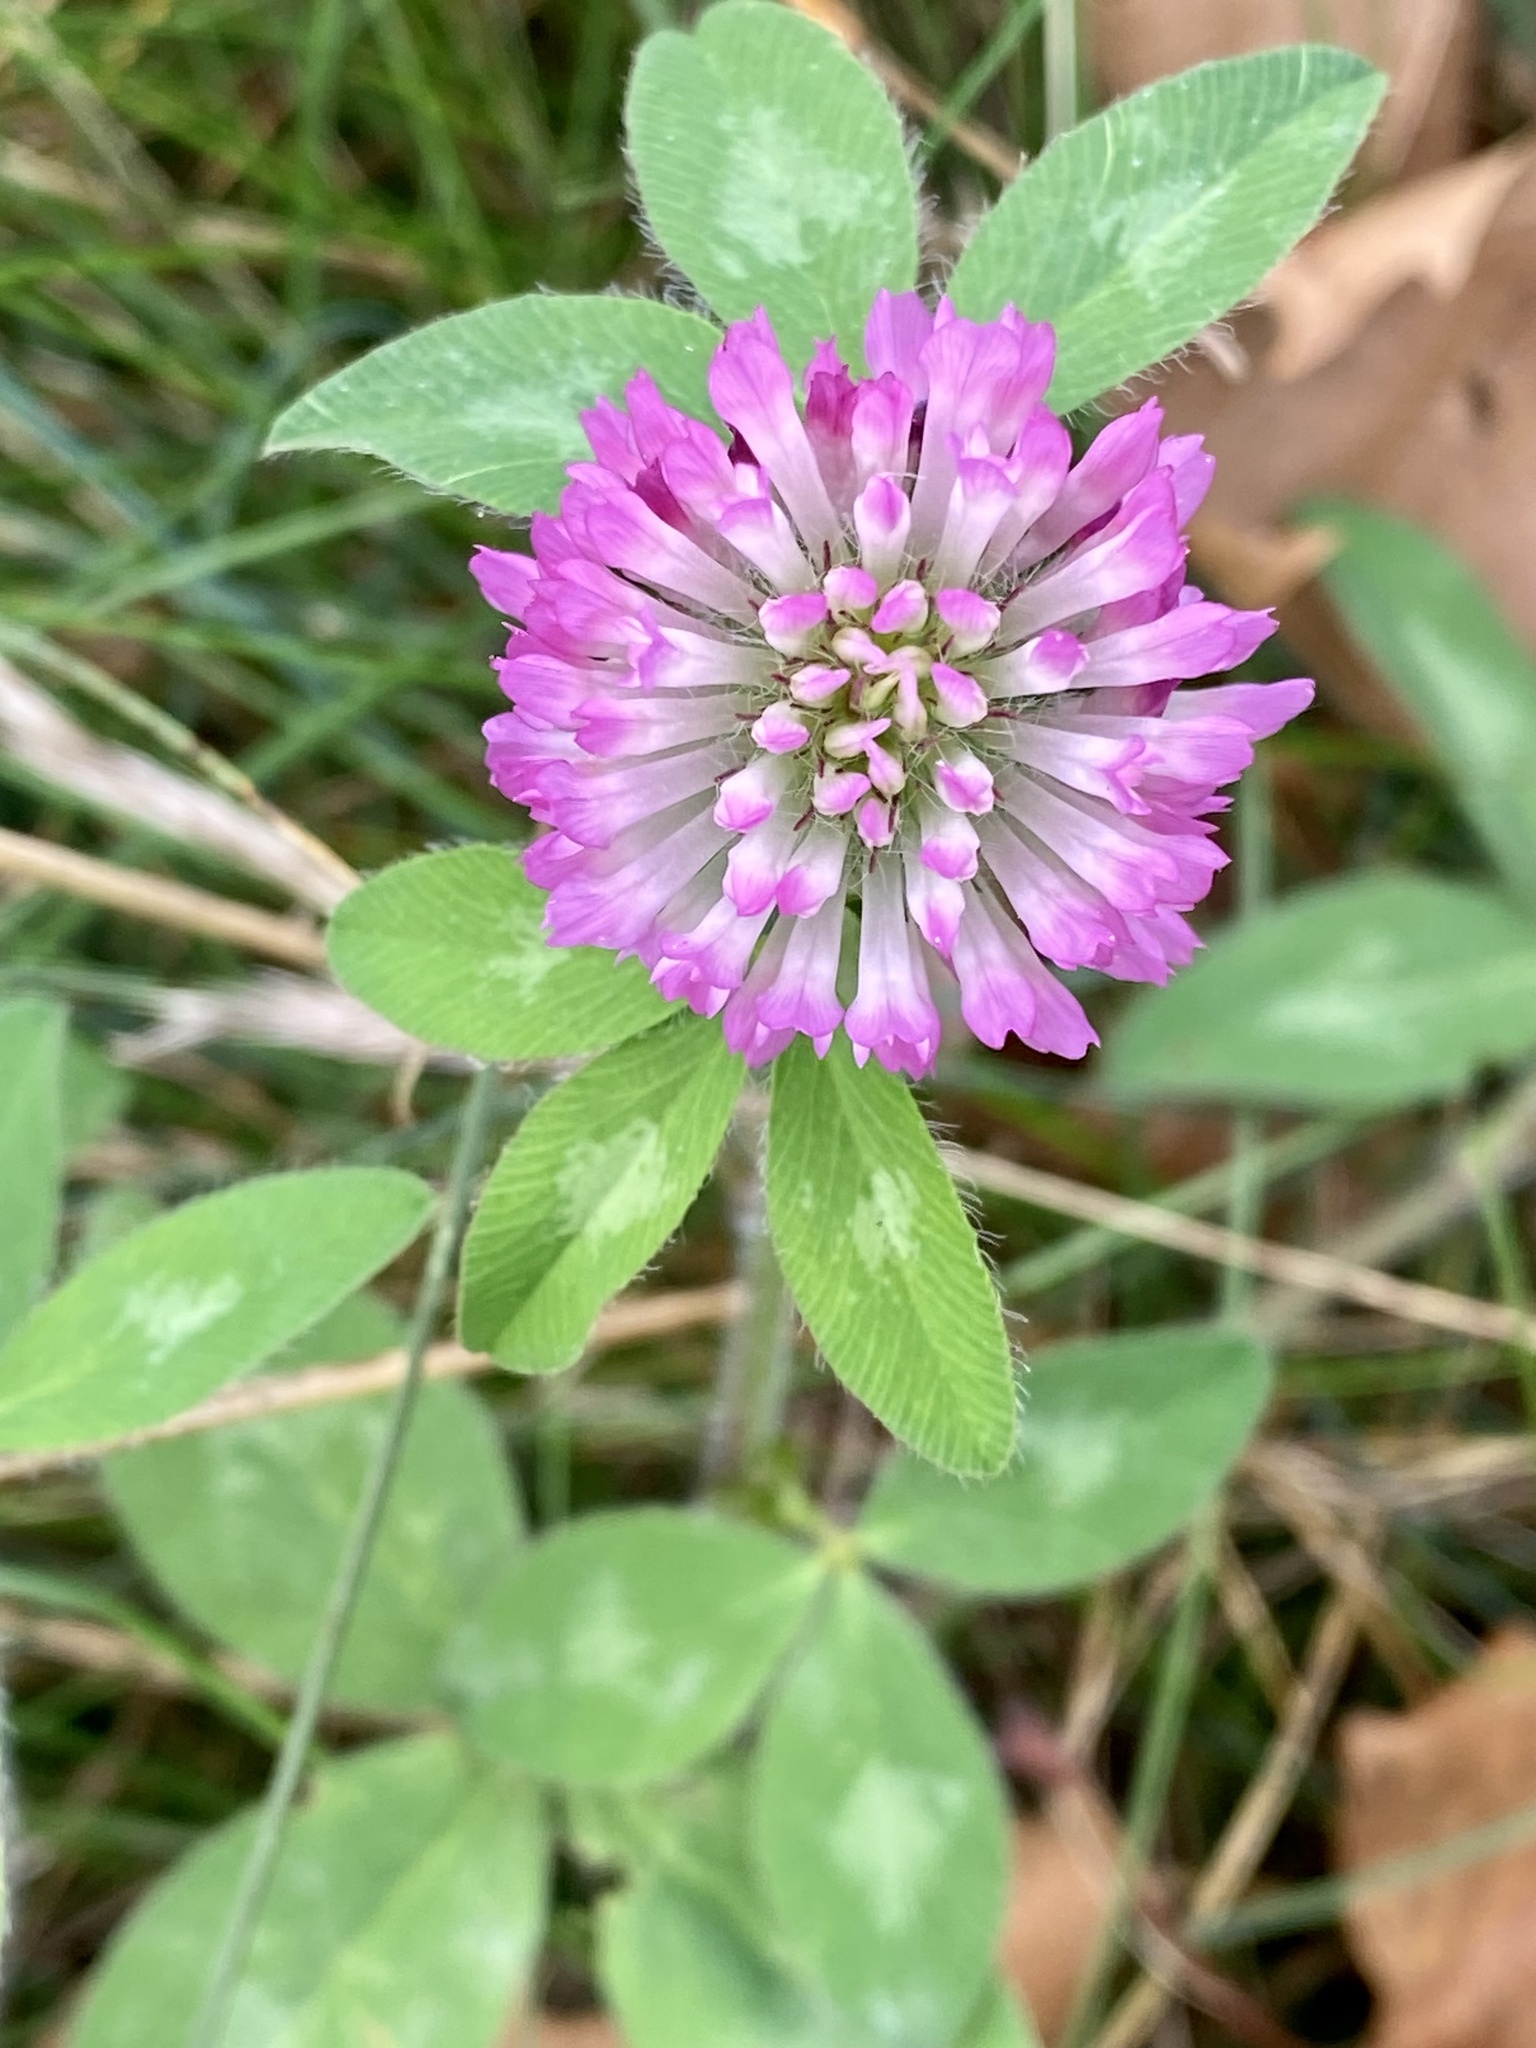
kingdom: Plantae
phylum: Tracheophyta
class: Magnoliopsida
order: Fabales
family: Fabaceae
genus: Trifolium
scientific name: Trifolium pratense
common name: Red clover
